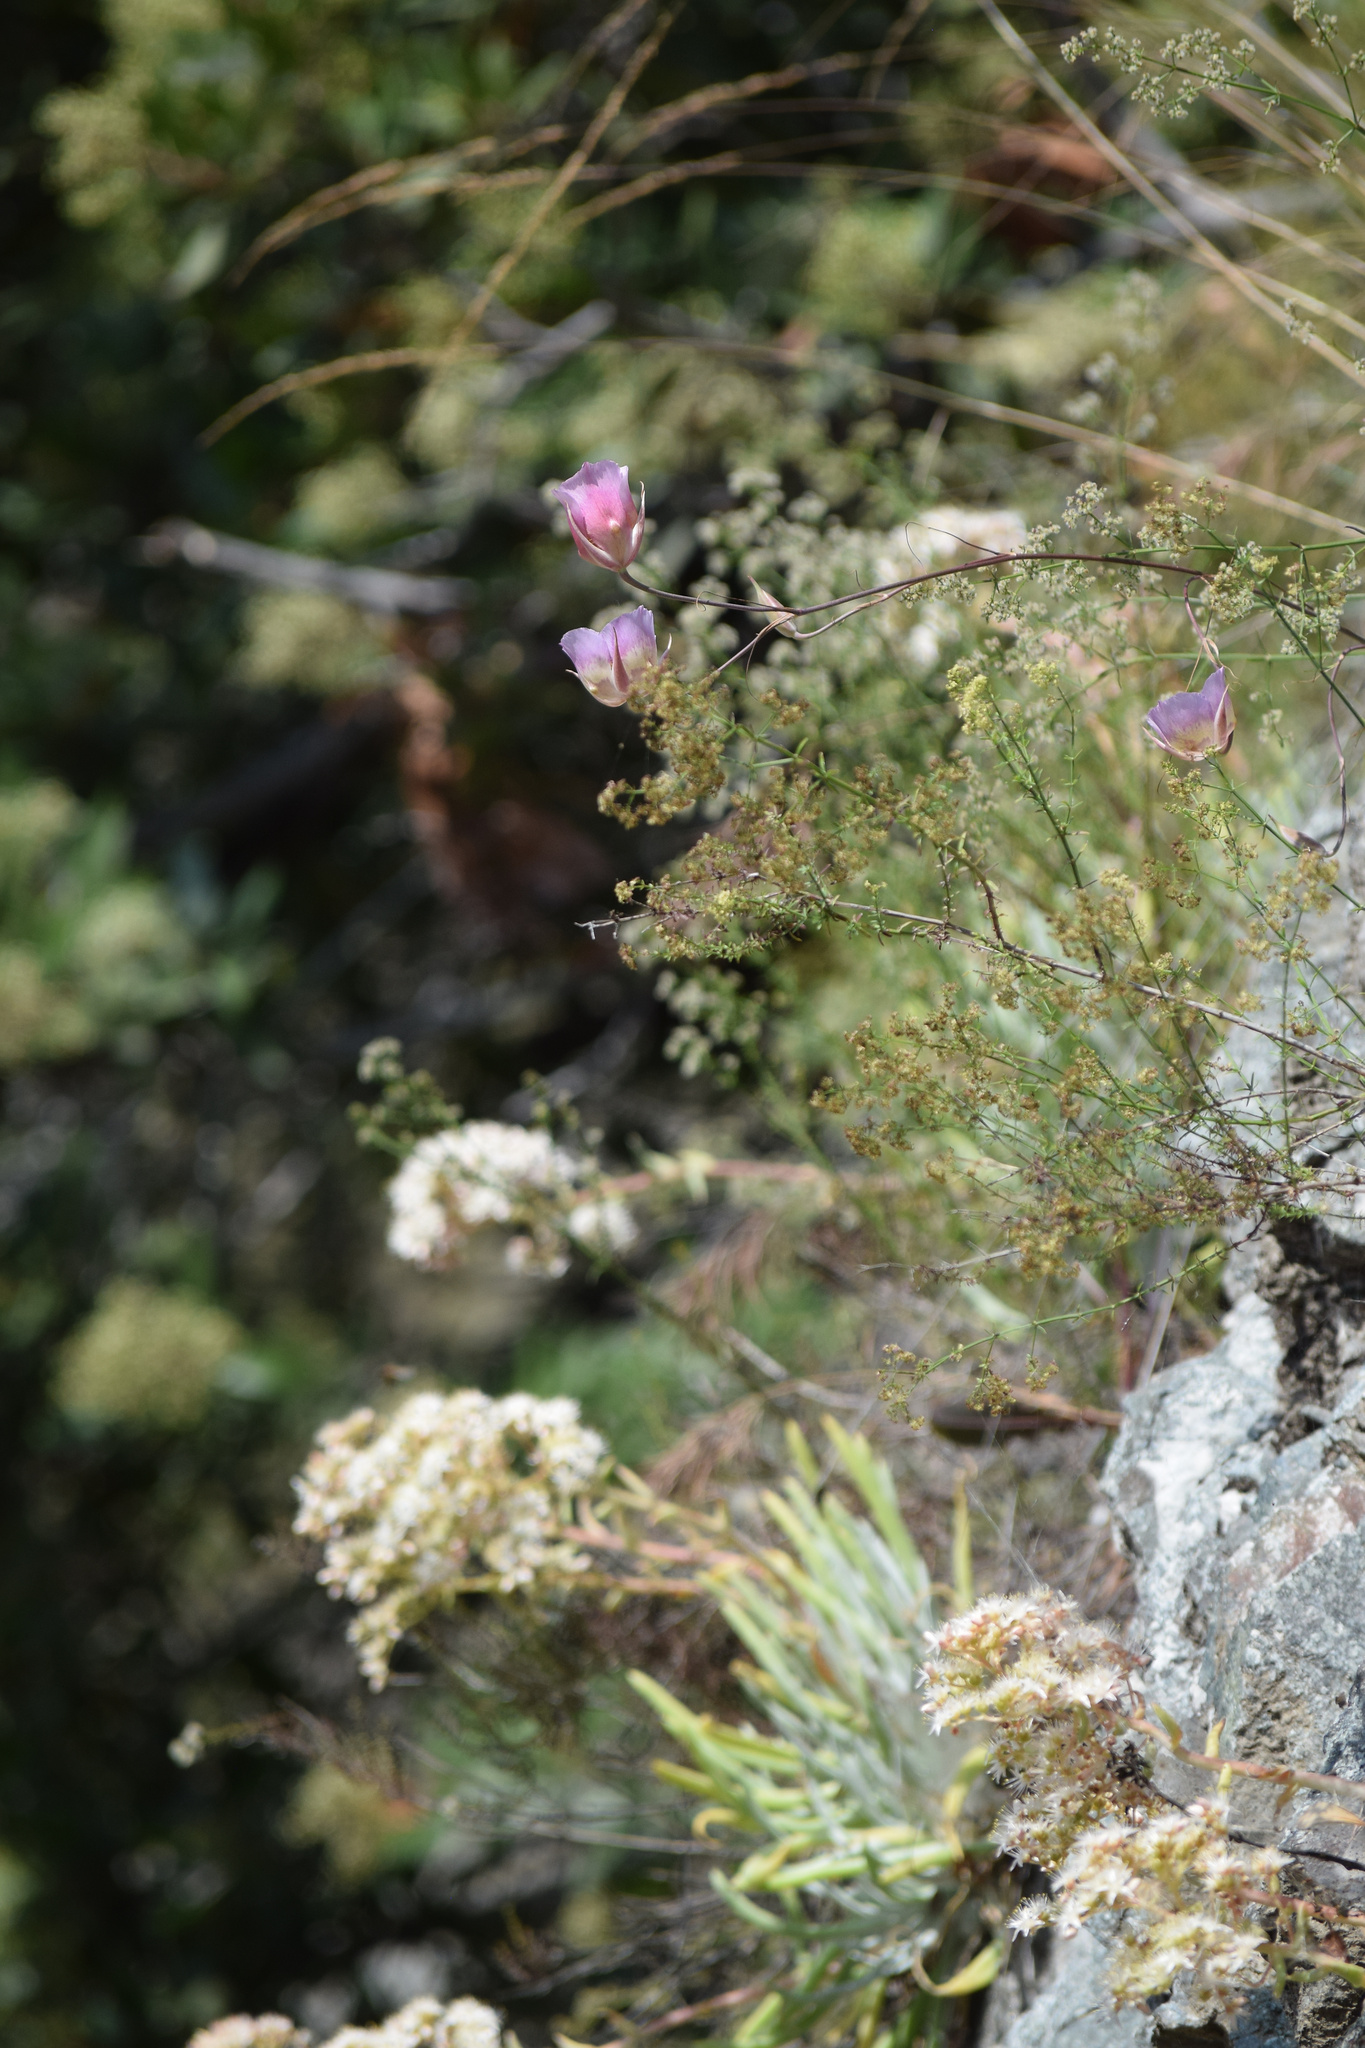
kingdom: Plantae
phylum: Tracheophyta
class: Liliopsida
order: Liliales
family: Liliaceae
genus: Calochortus
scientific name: Calochortus plummerae
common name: Plummer's mariposa-lily
